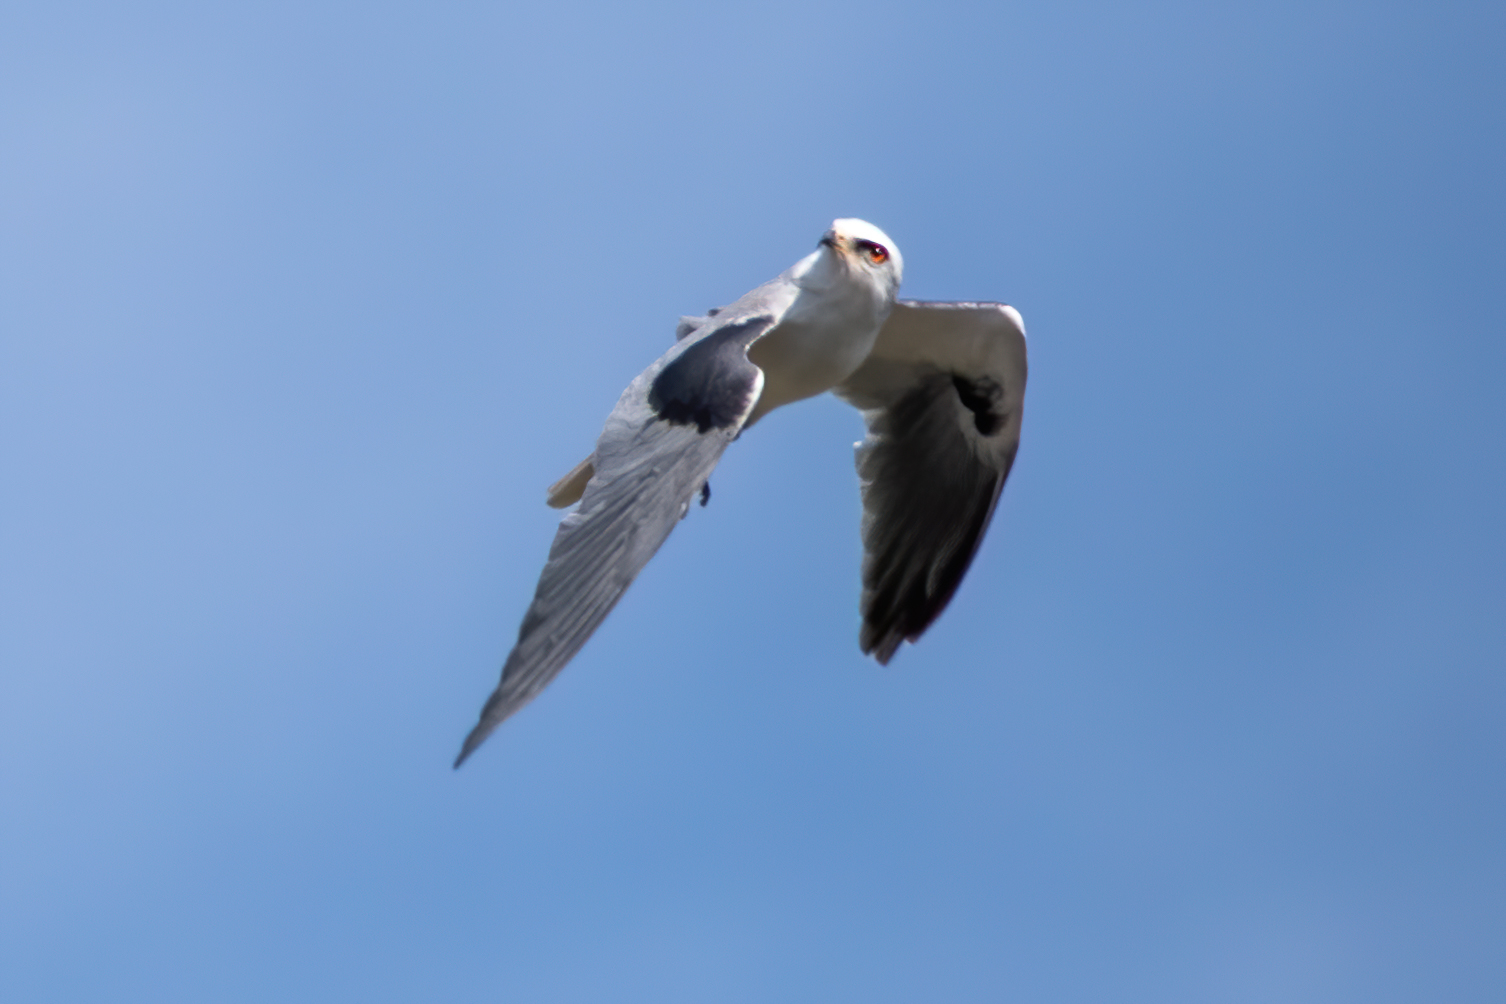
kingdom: Animalia
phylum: Chordata
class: Aves
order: Accipitriformes
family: Accipitridae
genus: Elanus
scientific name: Elanus leucurus
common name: White-tailed kite
